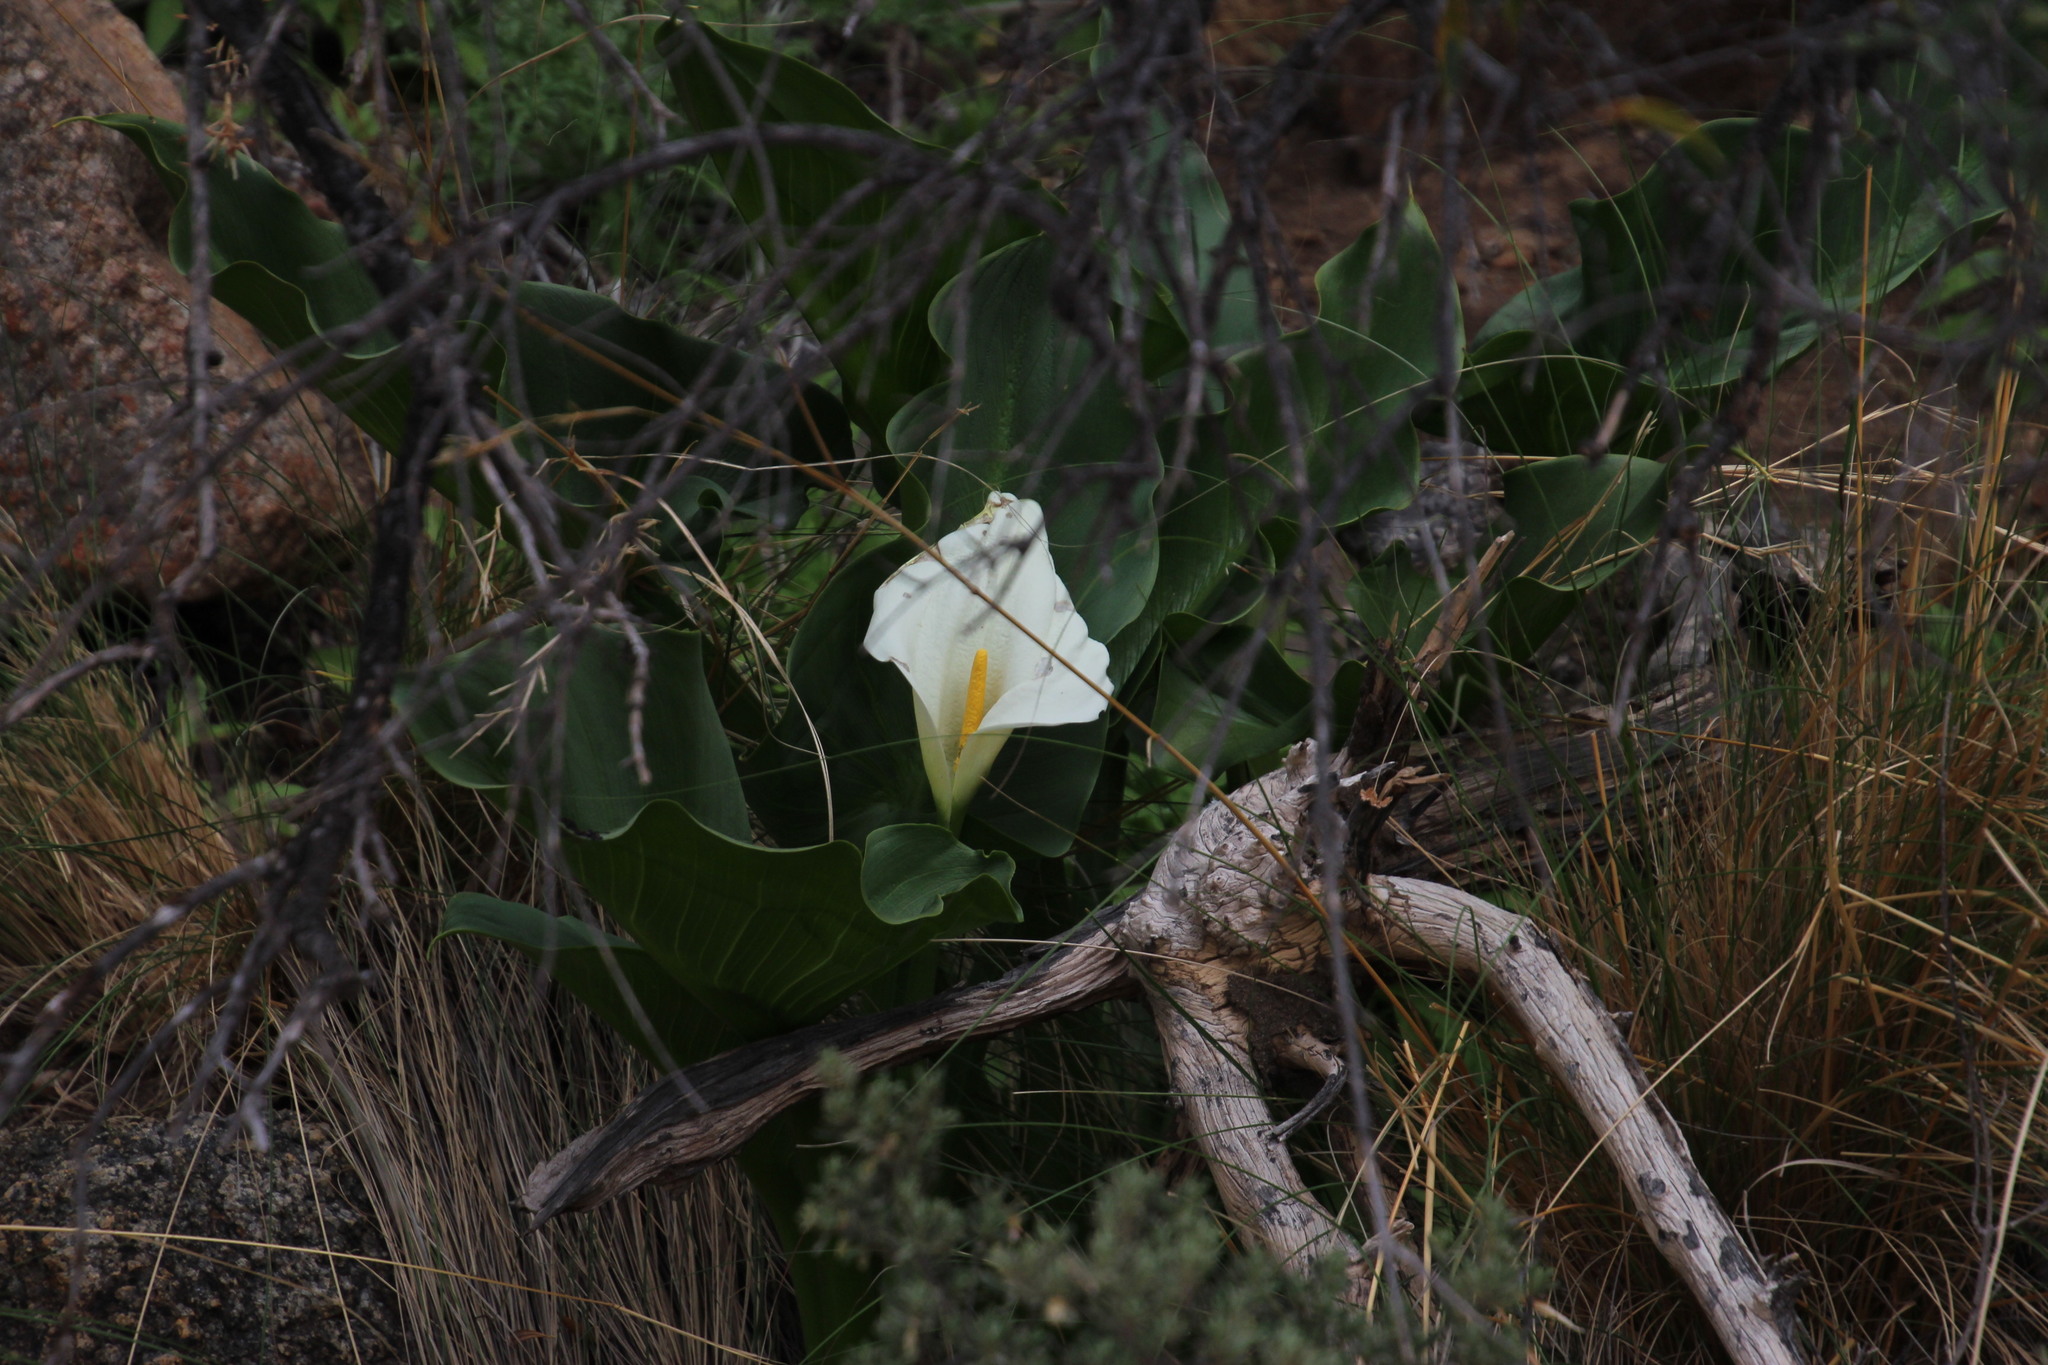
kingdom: Plantae
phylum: Tracheophyta
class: Liliopsida
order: Alismatales
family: Araceae
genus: Zantedeschia
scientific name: Zantedeschia aethiopica
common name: Altar-lily
